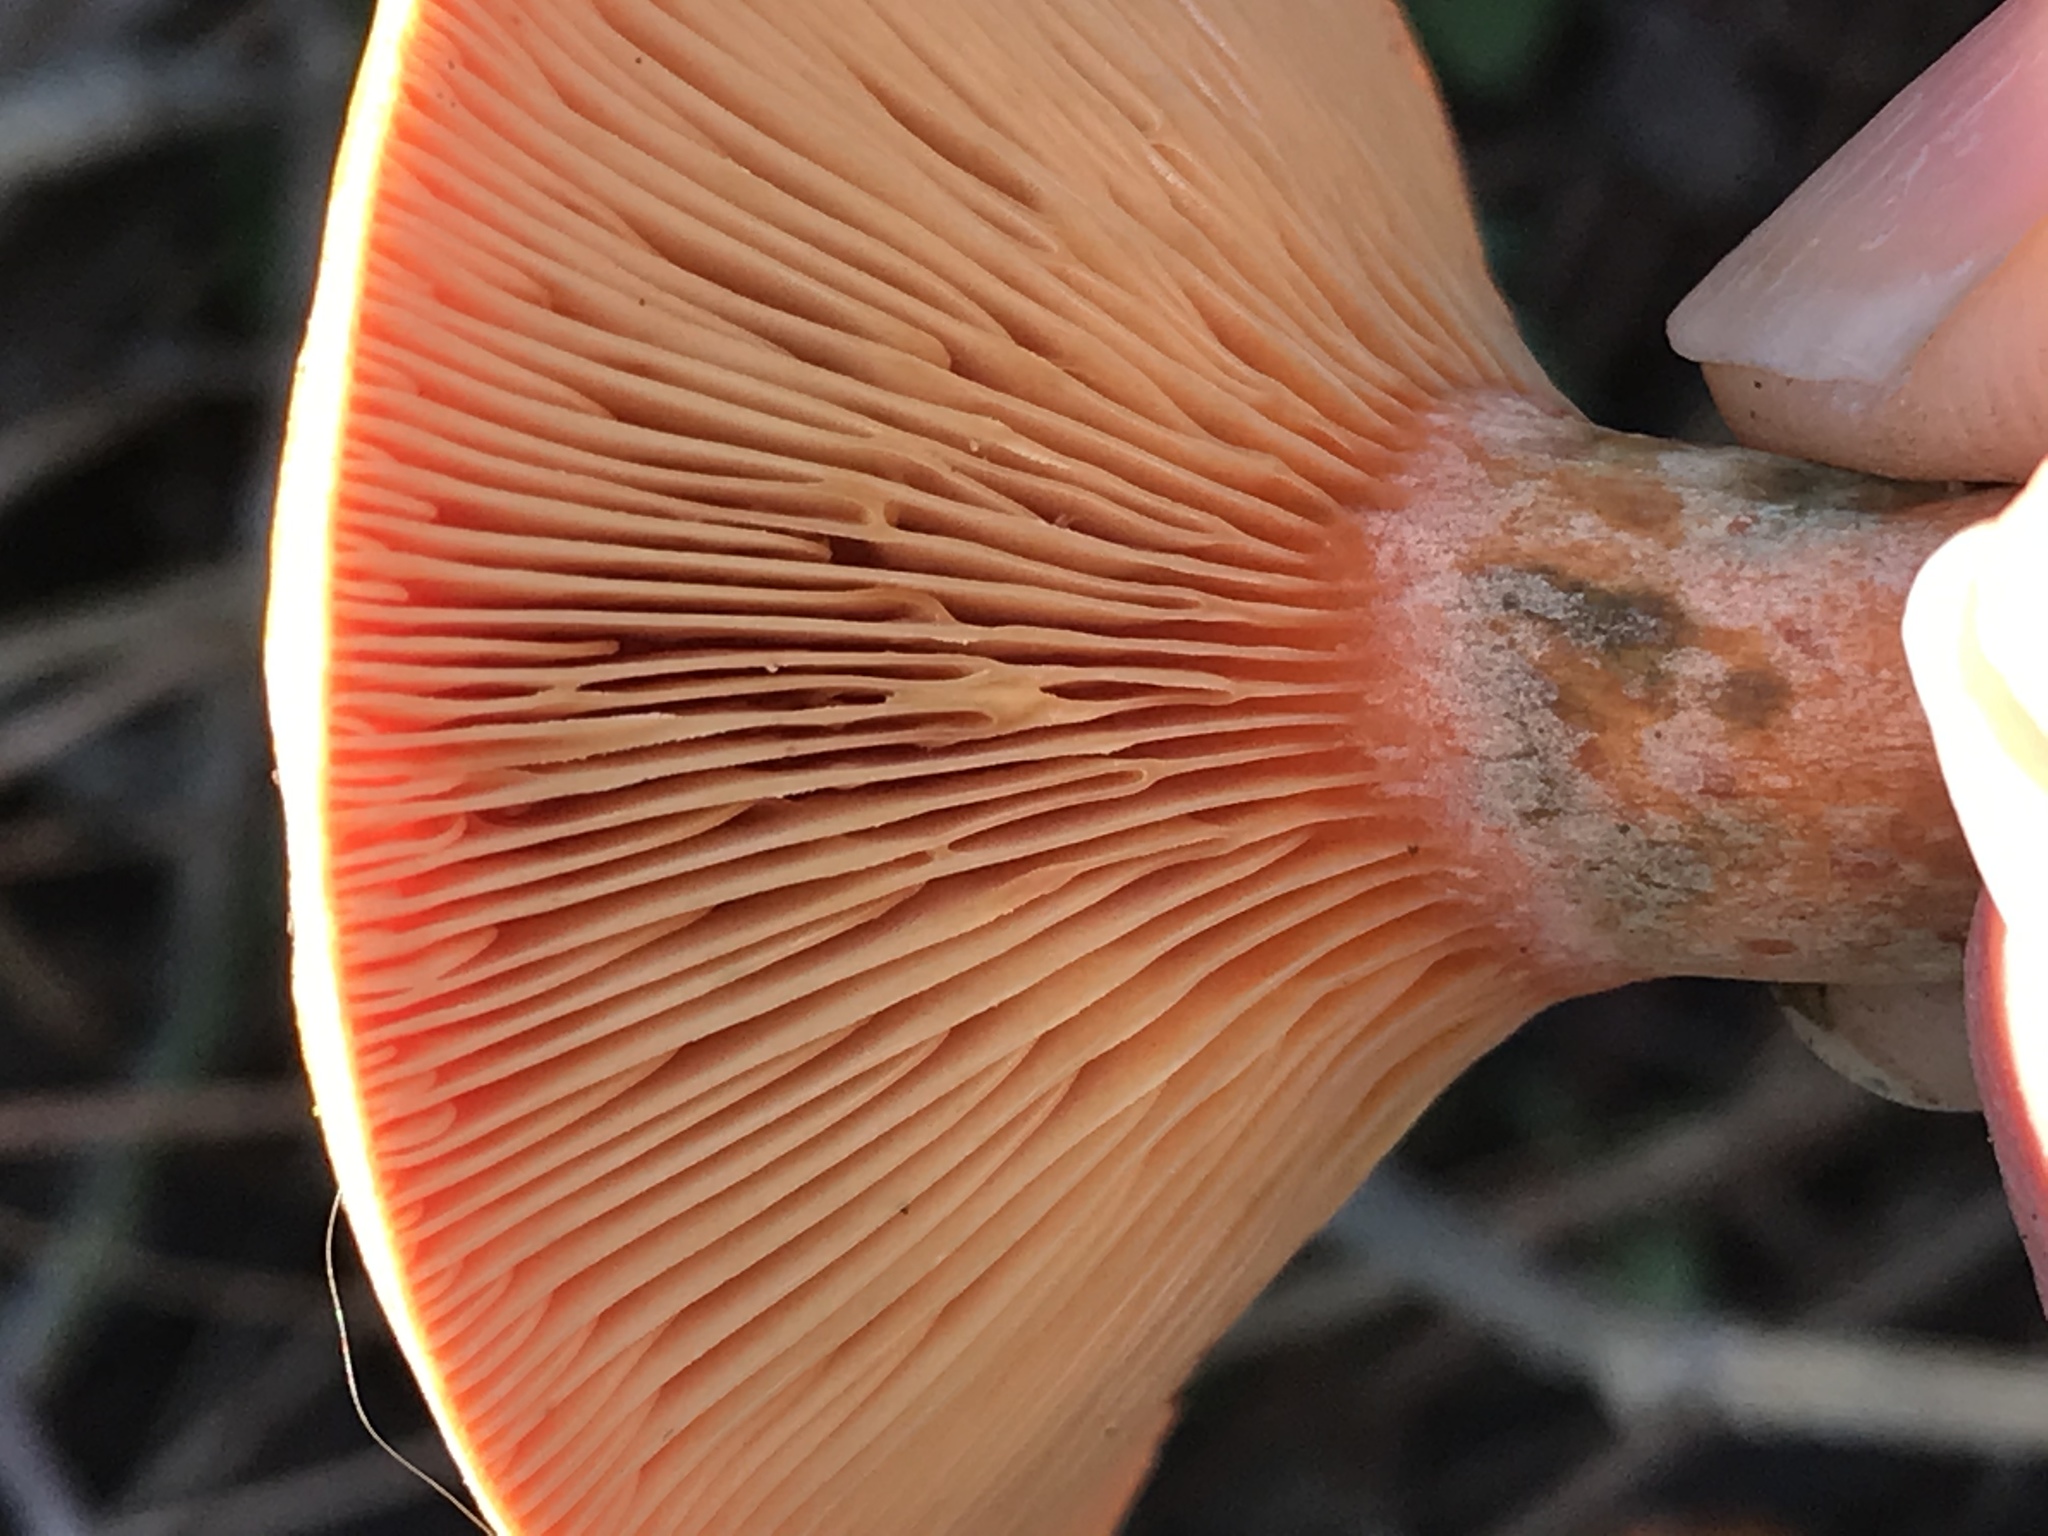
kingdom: Fungi
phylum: Basidiomycota
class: Agaricomycetes
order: Russulales
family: Russulaceae
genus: Lactarius
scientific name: Lactarius deliciosus
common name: Saffron milk-cap
